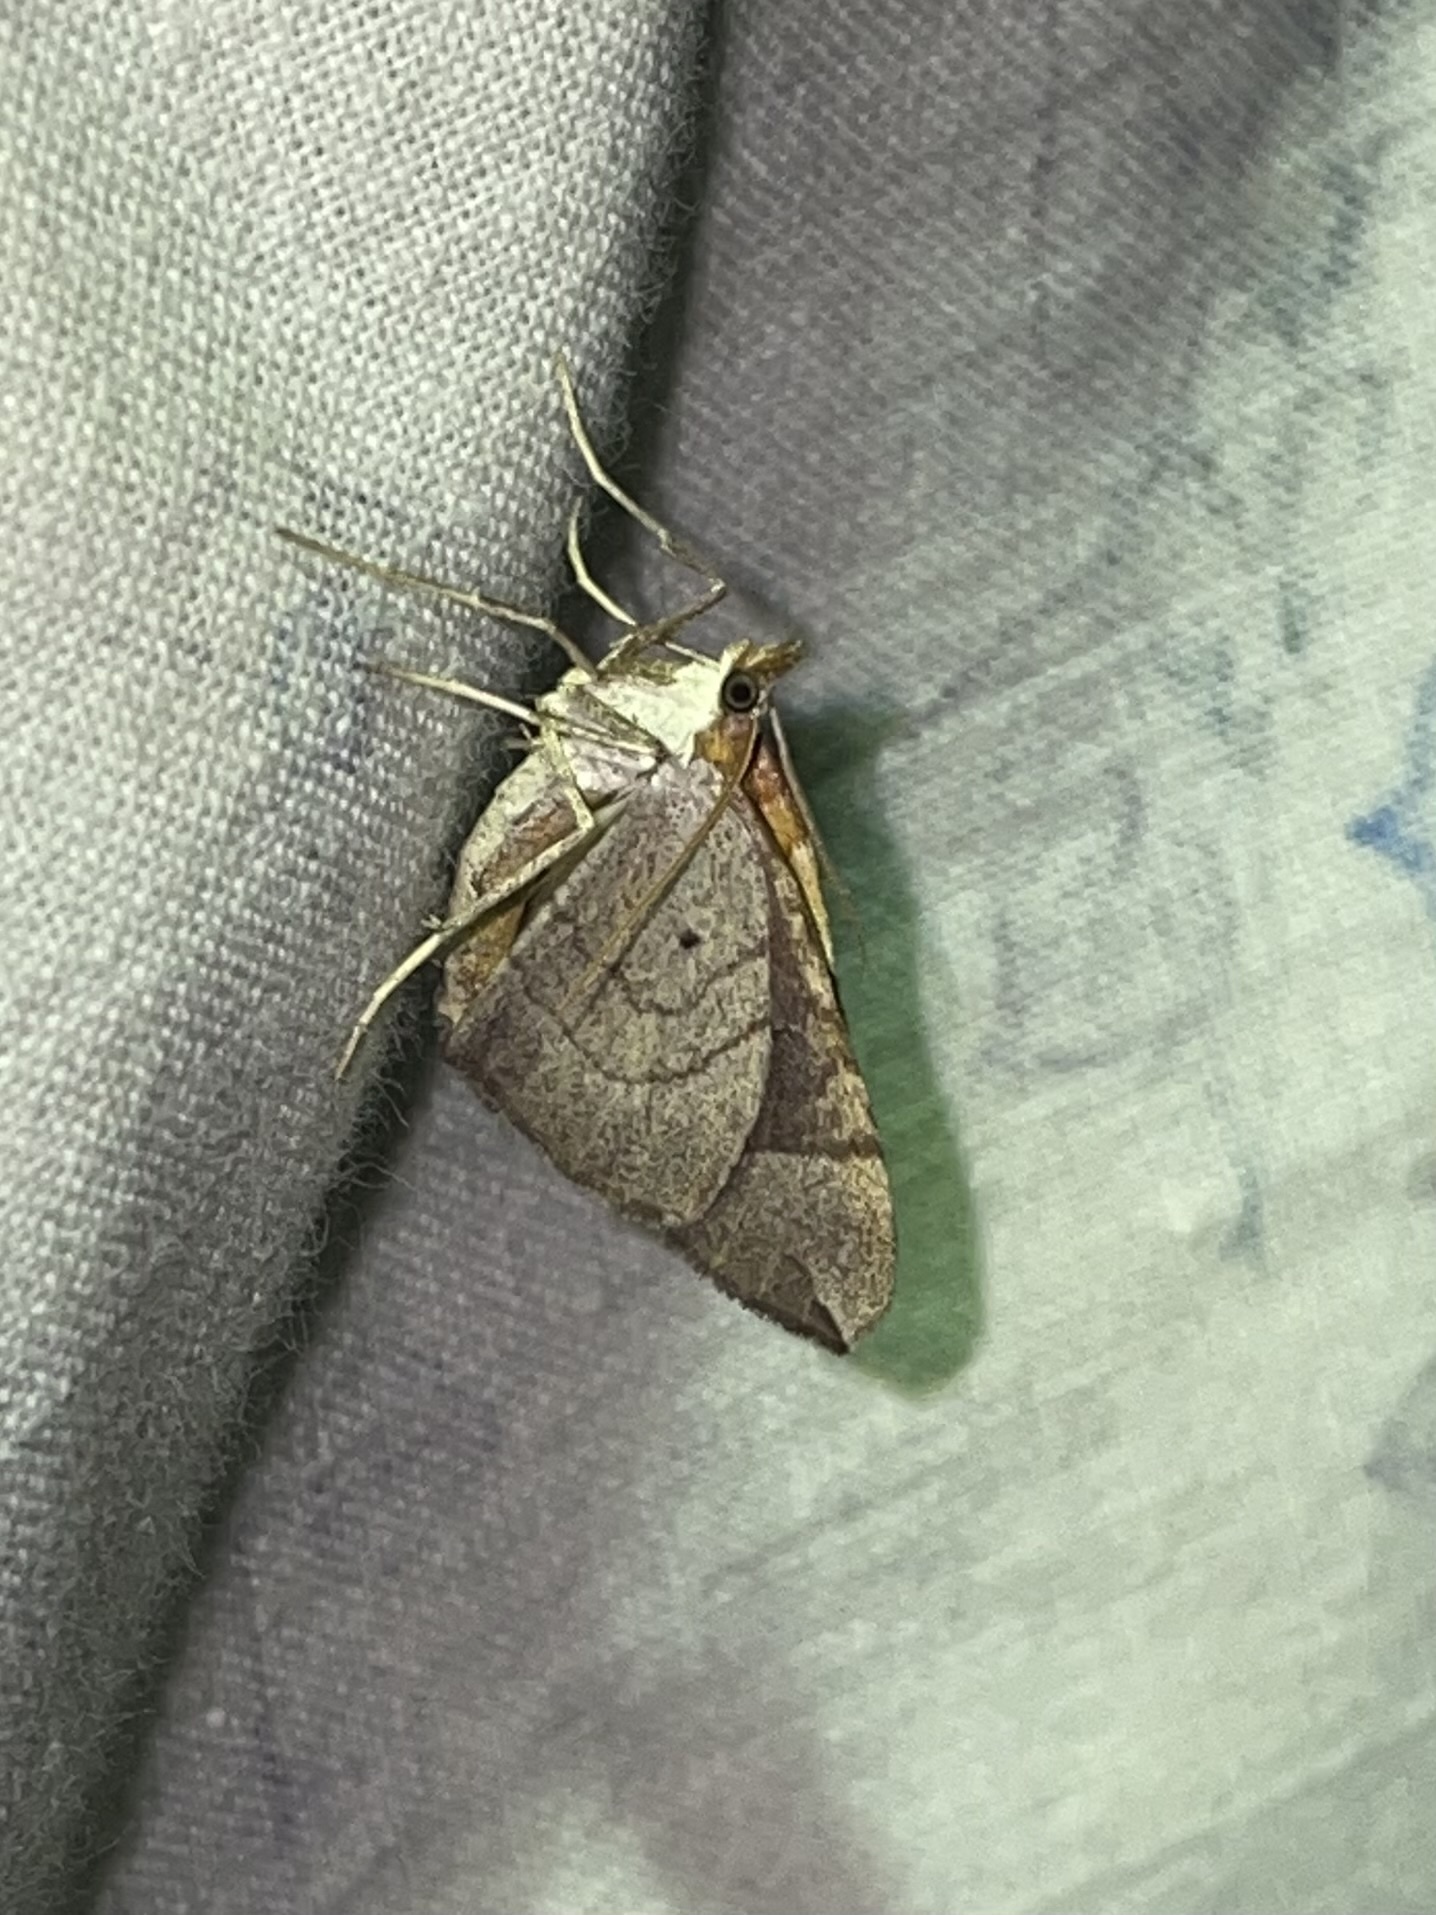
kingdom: Animalia
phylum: Arthropoda
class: Insecta
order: Lepidoptera
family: Geometridae
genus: Eulithis
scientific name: Eulithis populata
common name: Northern spinach
